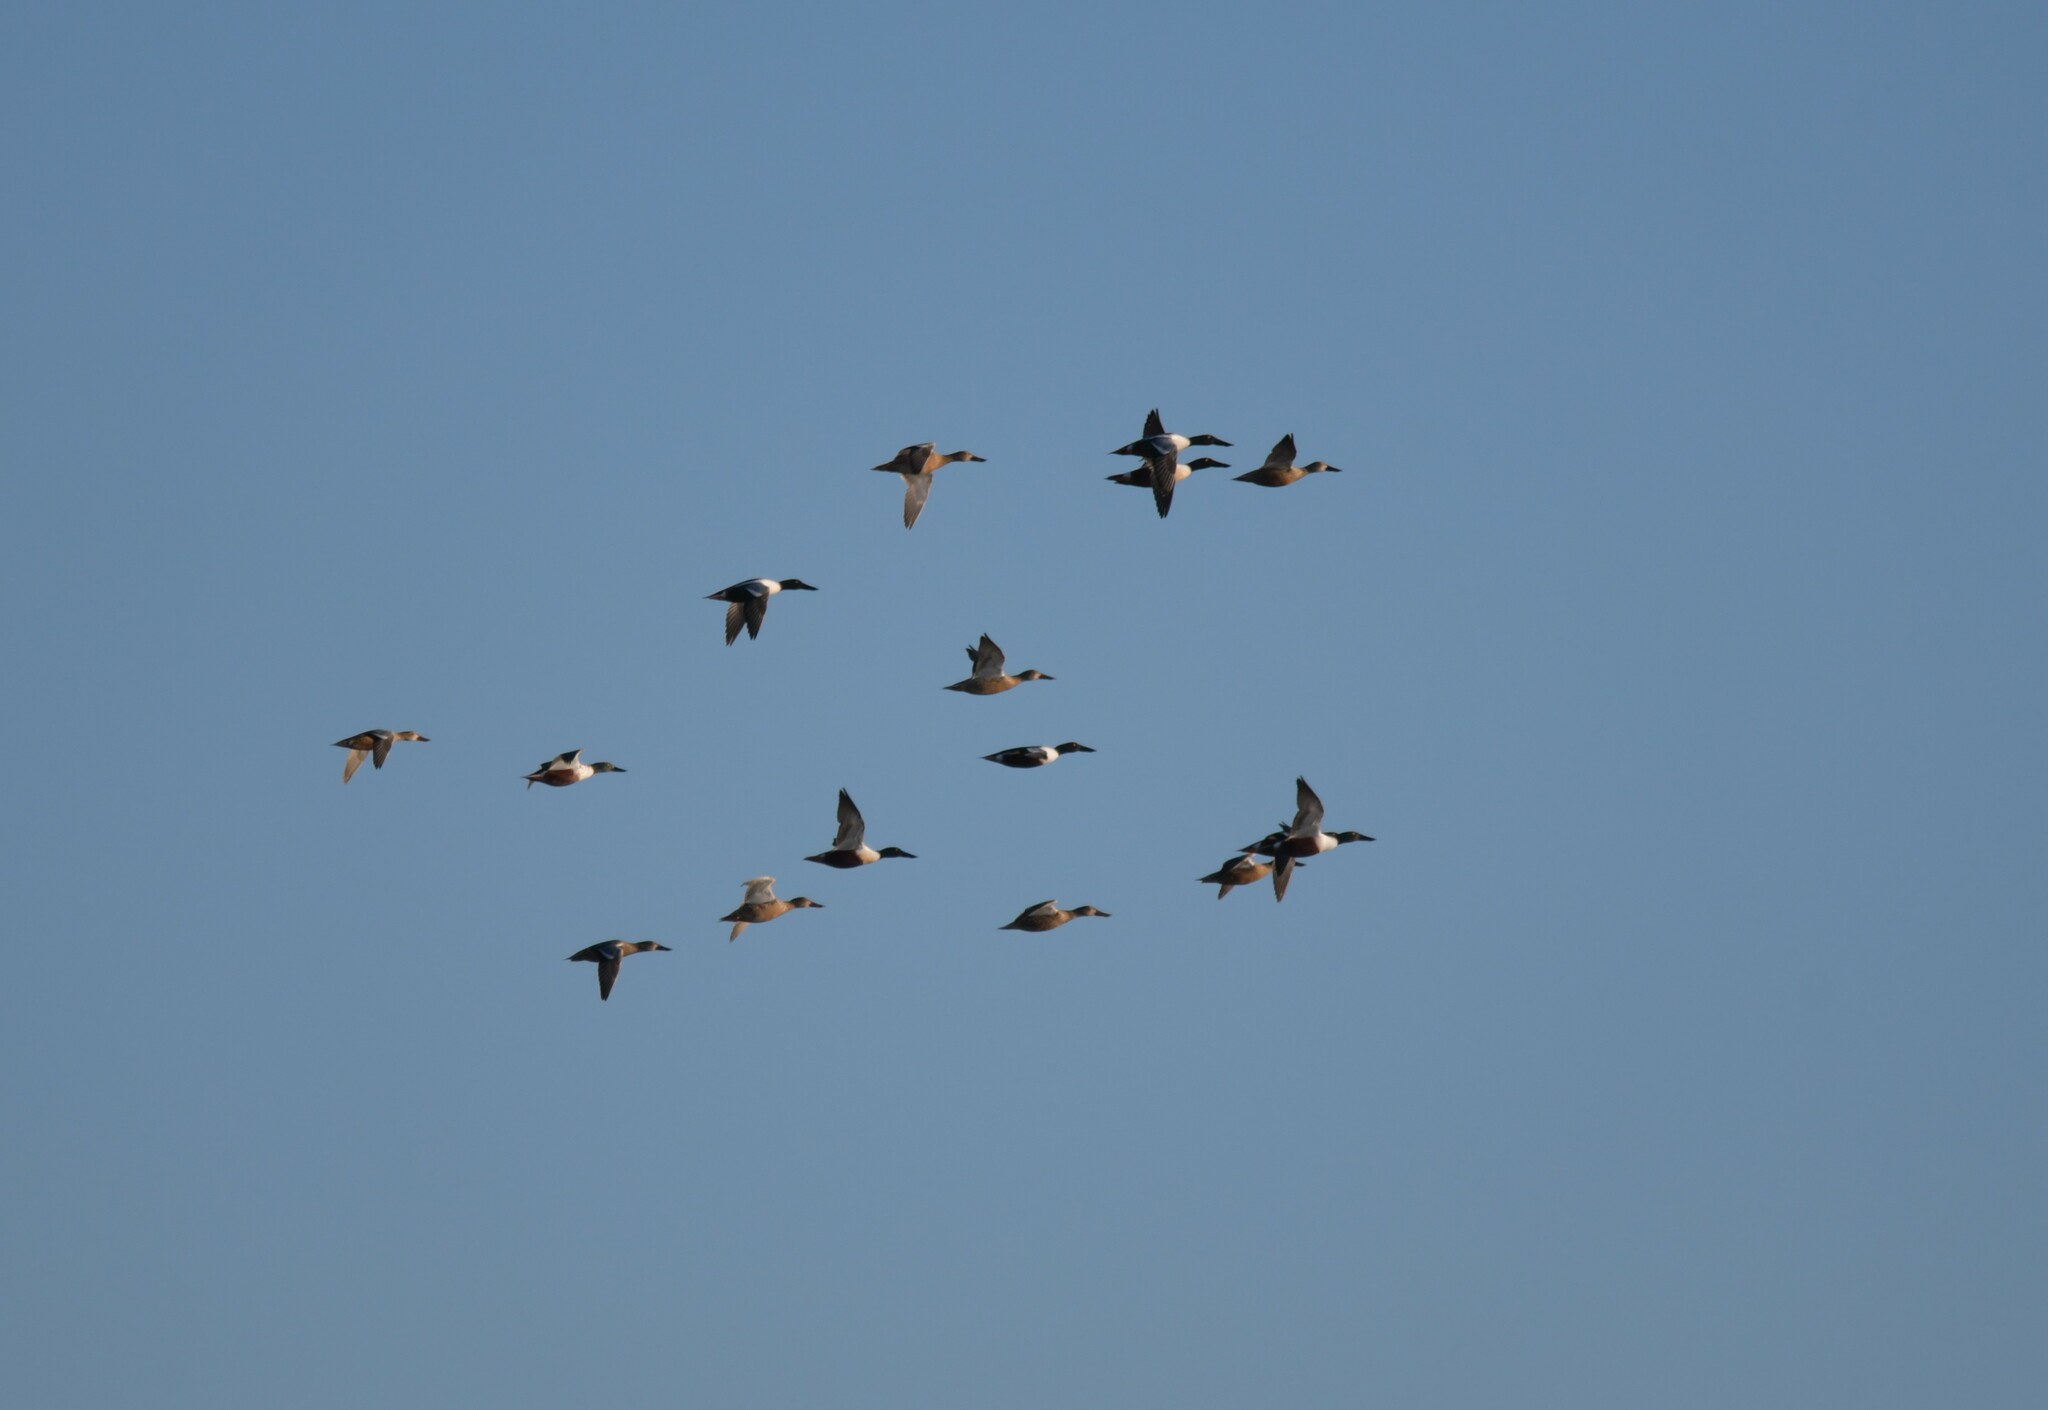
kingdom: Animalia
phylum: Chordata
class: Aves
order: Anseriformes
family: Anatidae
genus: Spatula
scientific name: Spatula clypeata
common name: Northern shoveler
